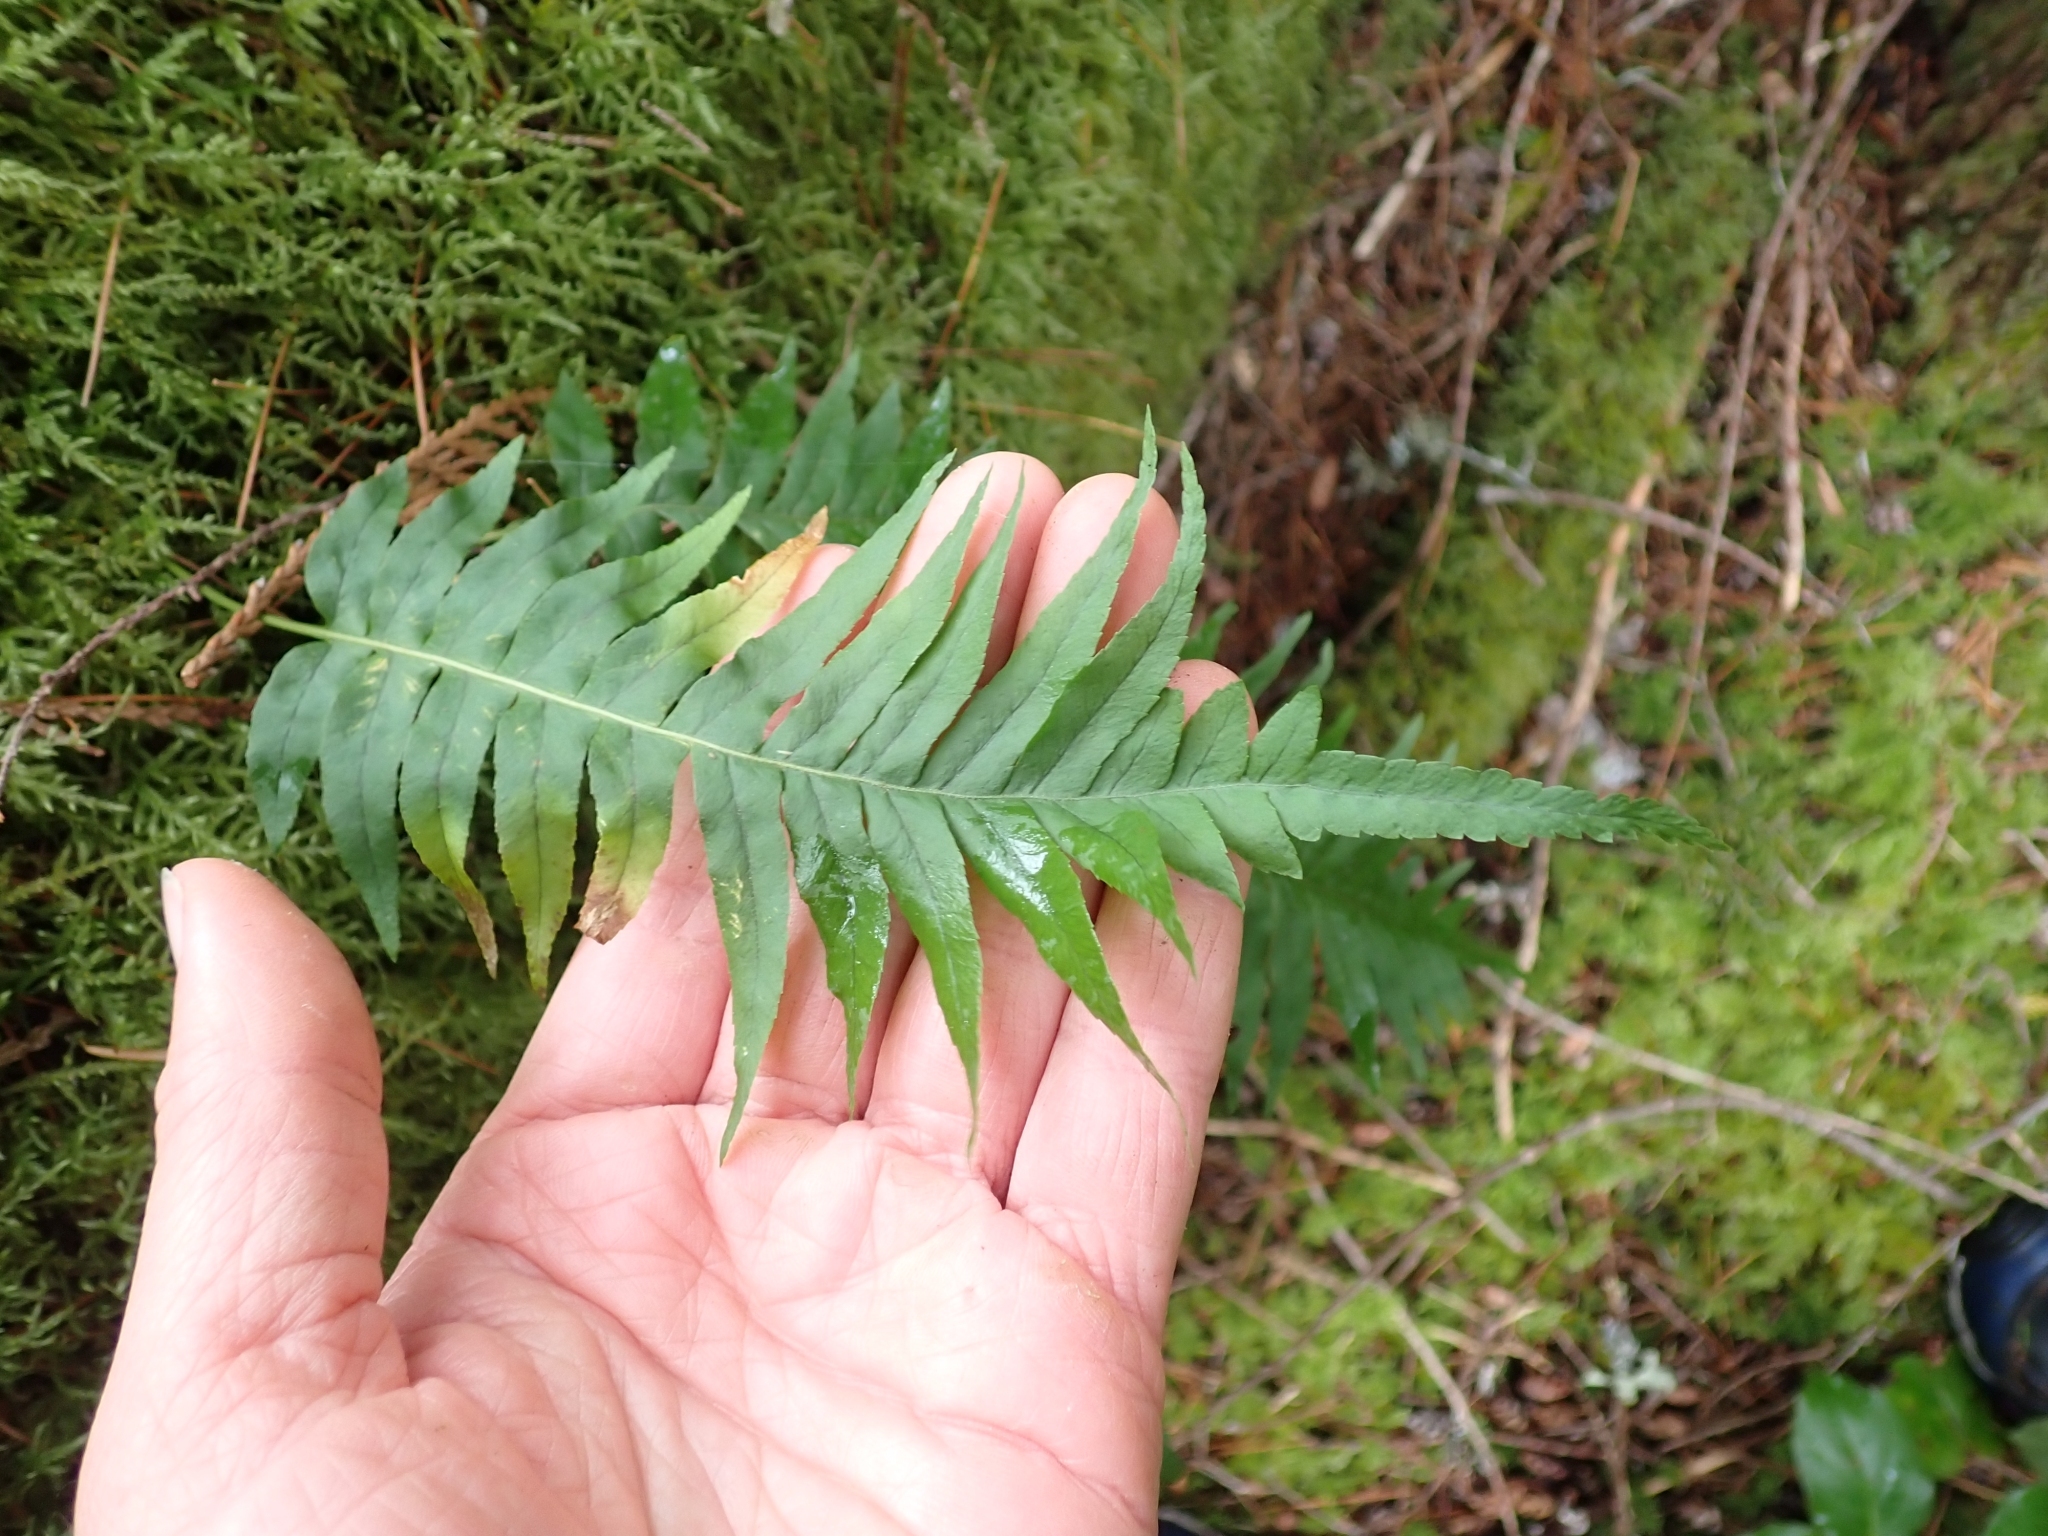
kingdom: Plantae
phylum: Tracheophyta
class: Polypodiopsida
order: Polypodiales
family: Polypodiaceae
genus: Polypodium
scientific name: Polypodium glycyrrhiza
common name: Licorice fern
